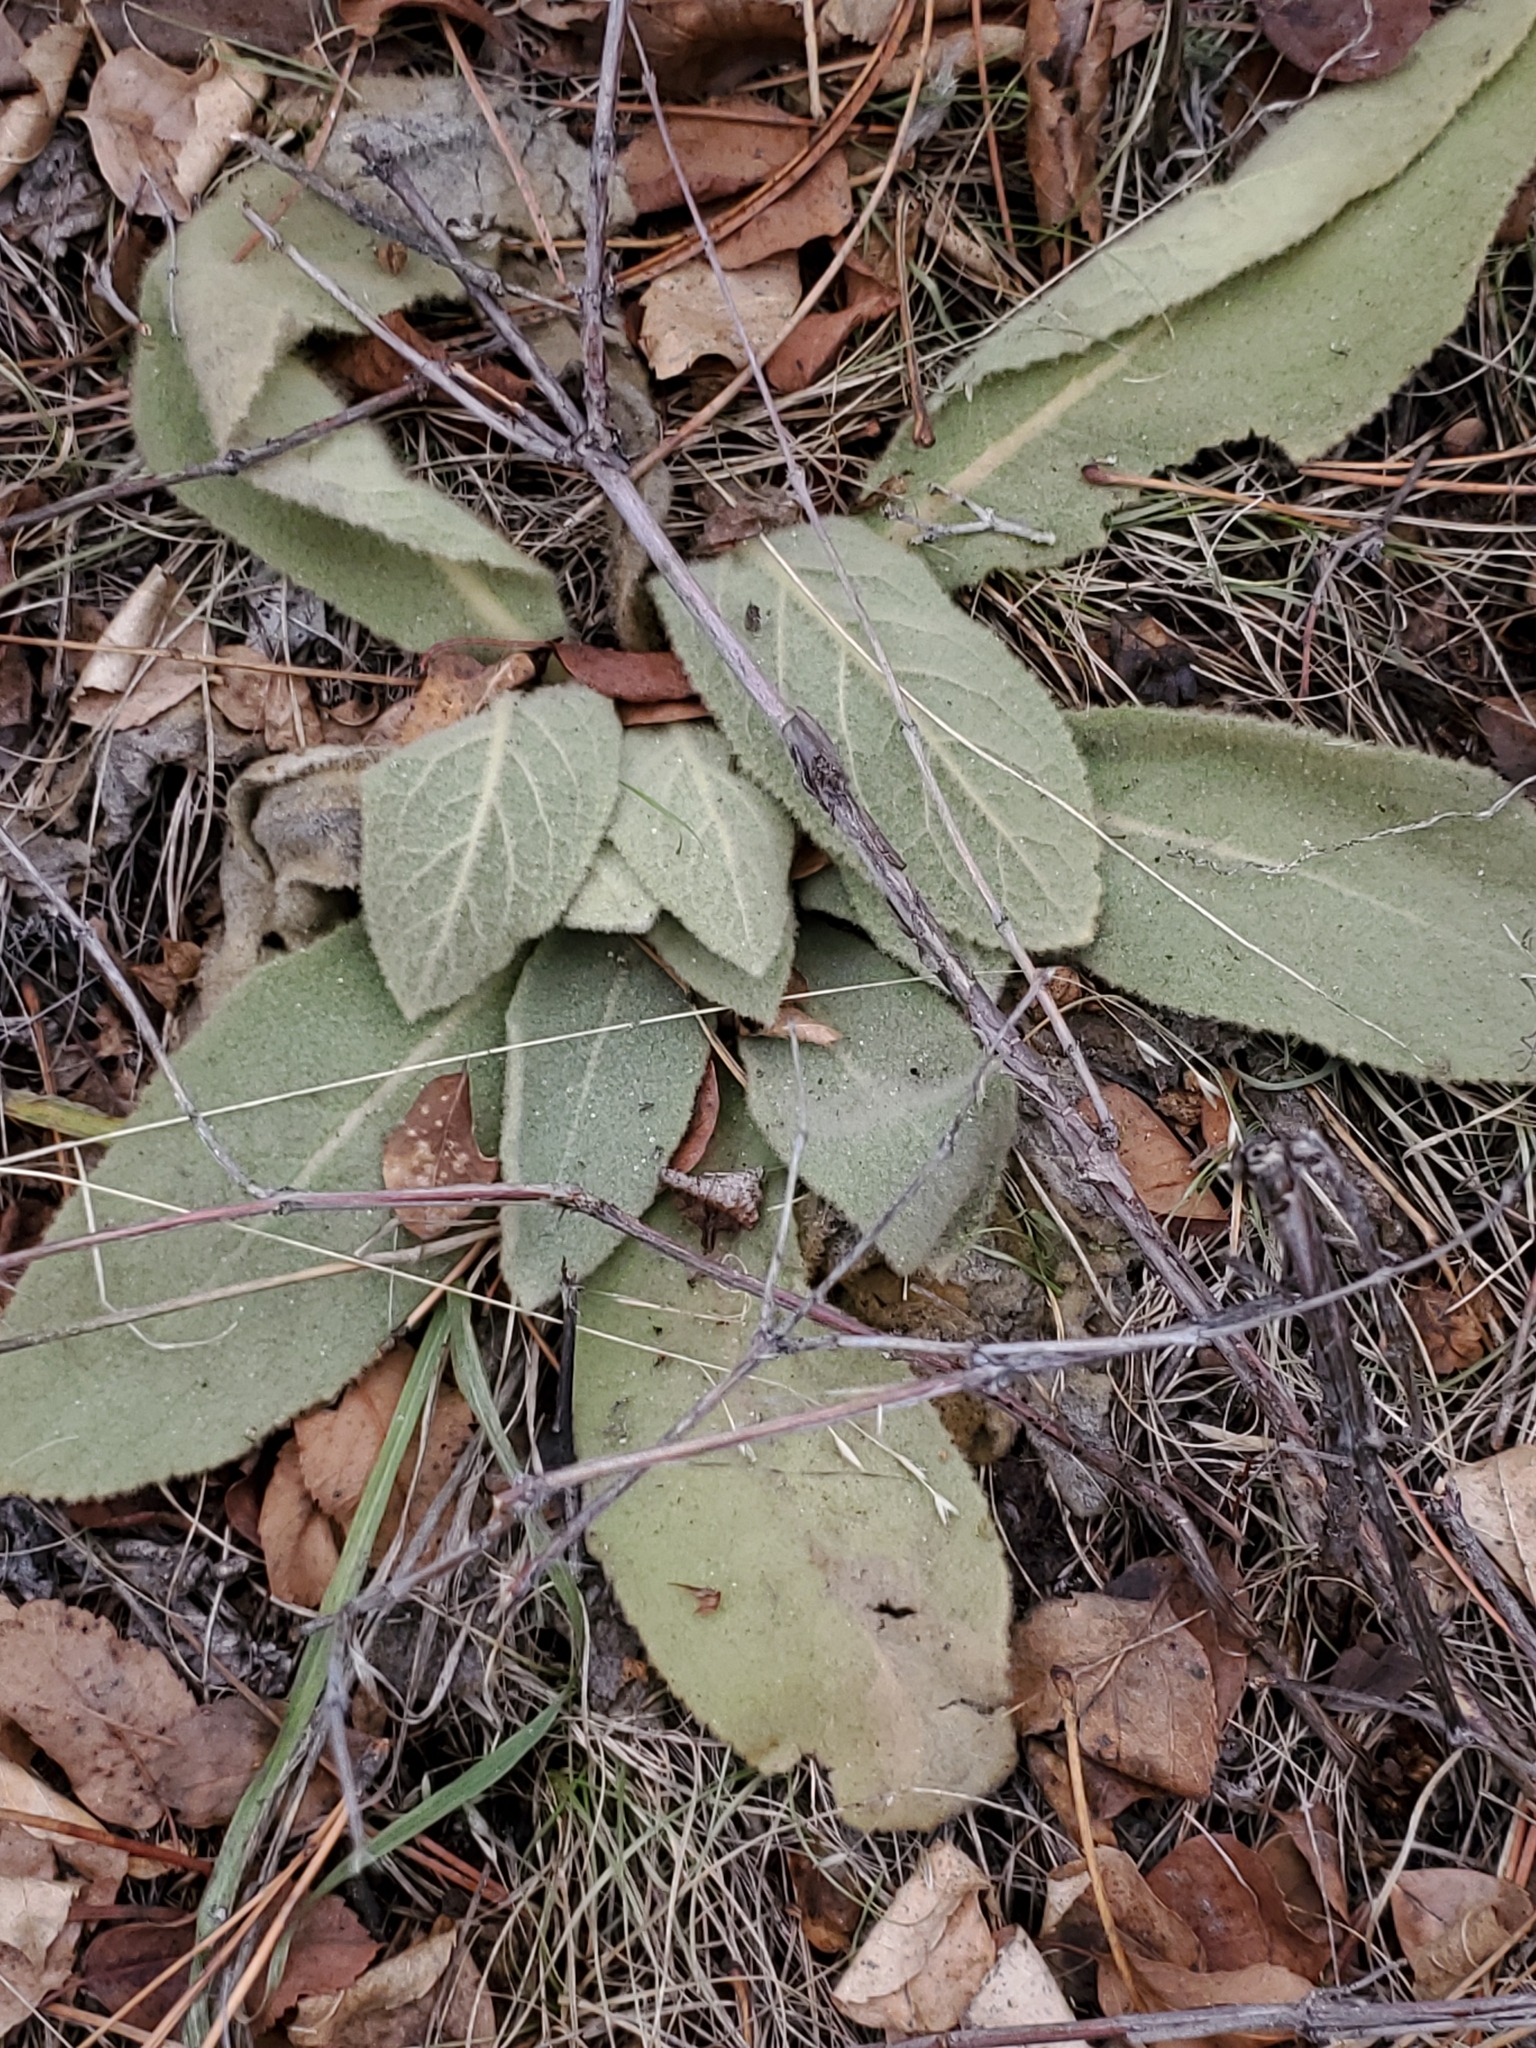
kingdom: Plantae
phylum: Tracheophyta
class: Magnoliopsida
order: Lamiales
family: Scrophulariaceae
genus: Verbascum
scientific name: Verbascum thapsus
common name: Common mullein
